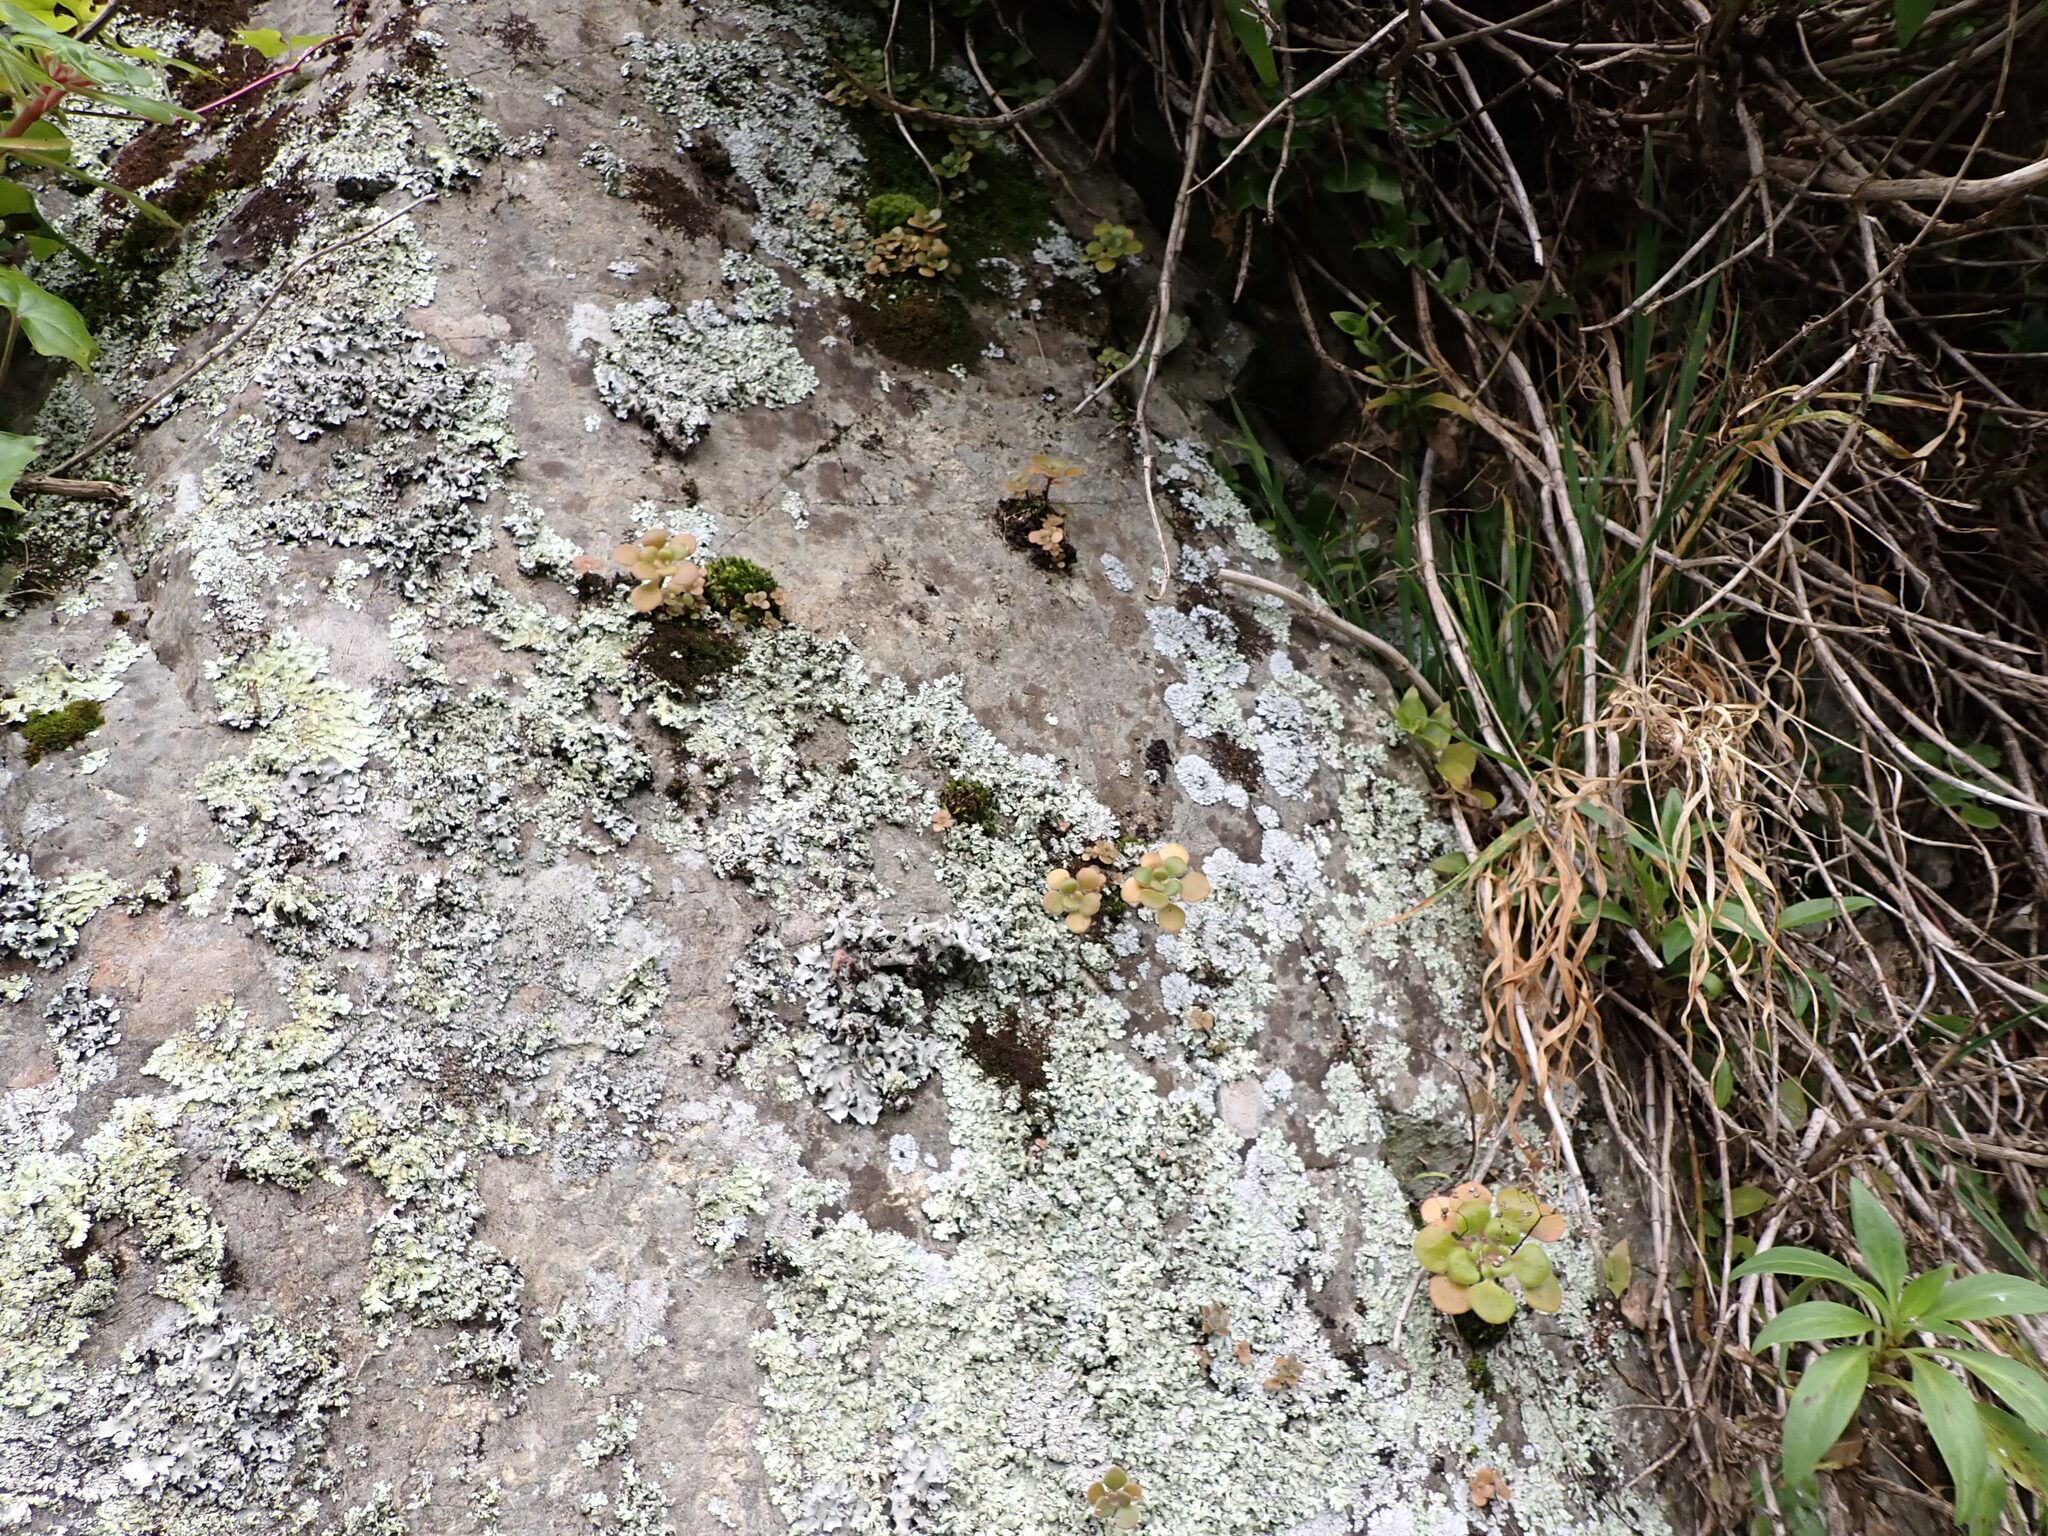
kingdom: Plantae
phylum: Tracheophyta
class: Magnoliopsida
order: Saxifragales
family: Crassulaceae
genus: Aichryson
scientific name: Aichryson laxum
